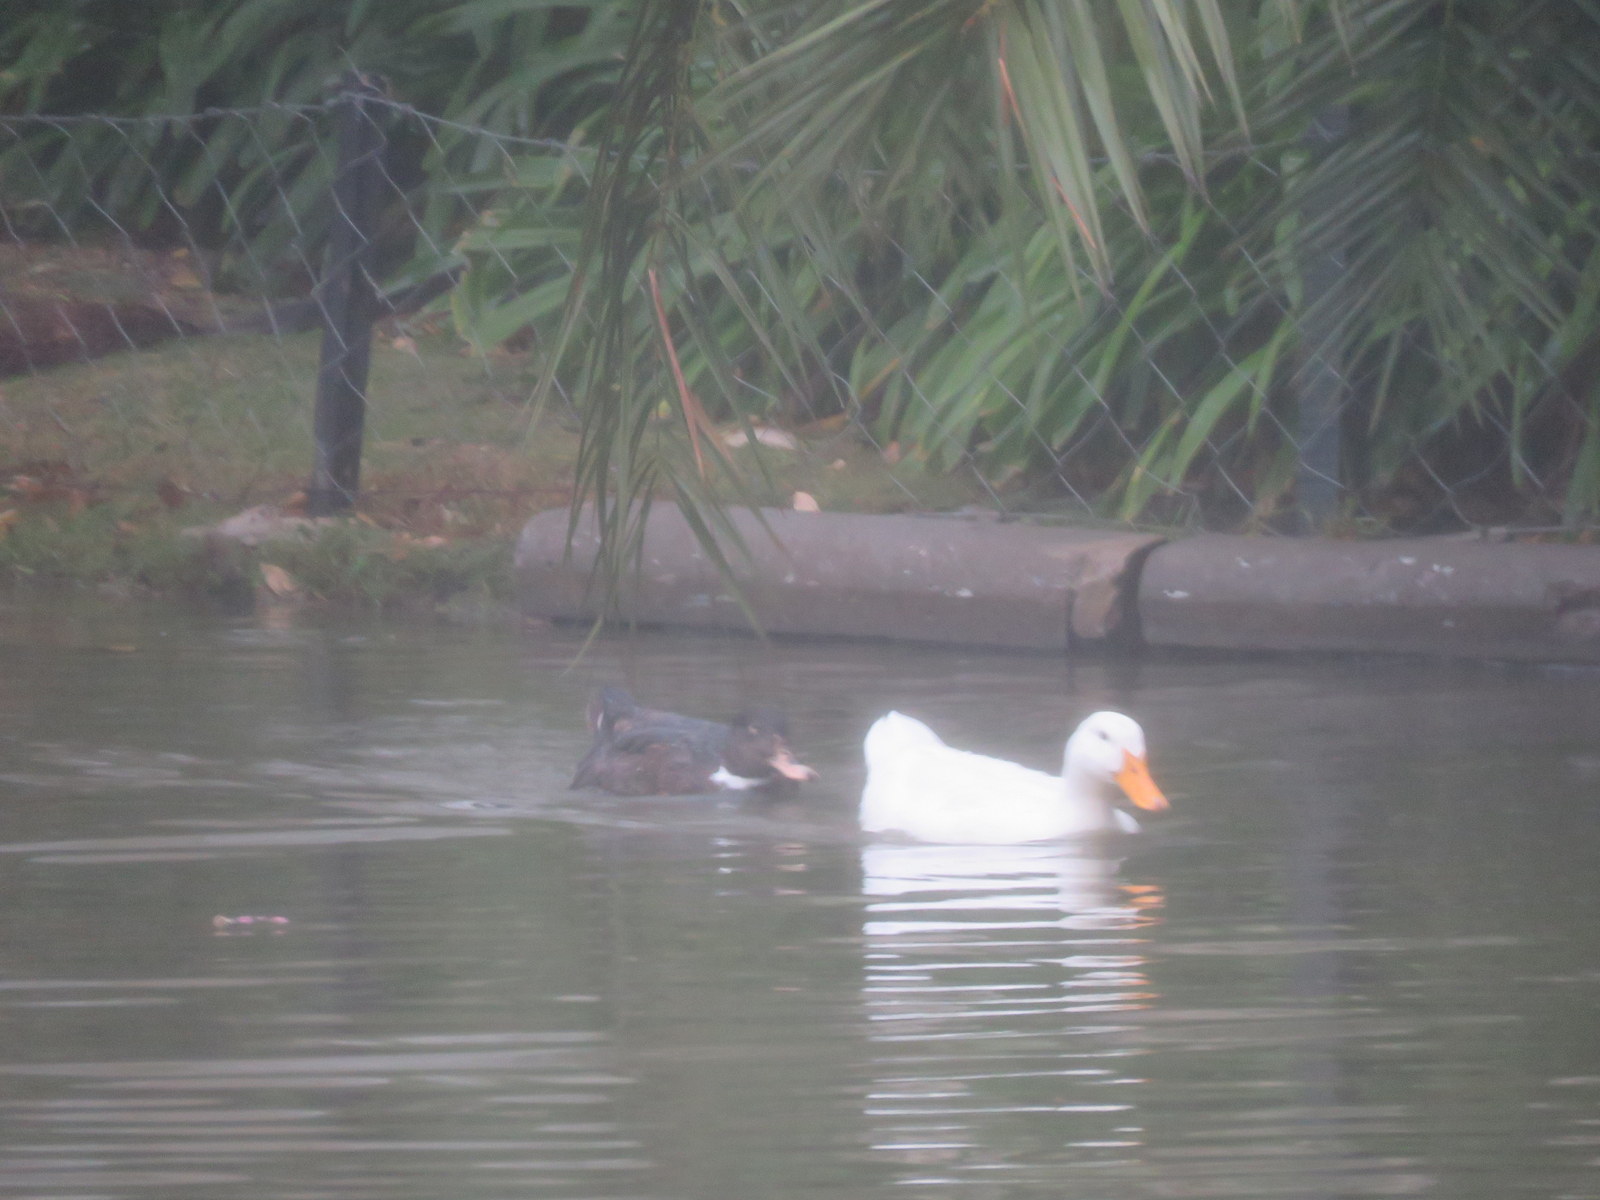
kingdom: Animalia
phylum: Chordata
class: Aves
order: Anseriformes
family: Anatidae
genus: Anas
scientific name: Anas platyrhynchos
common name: Mallard
